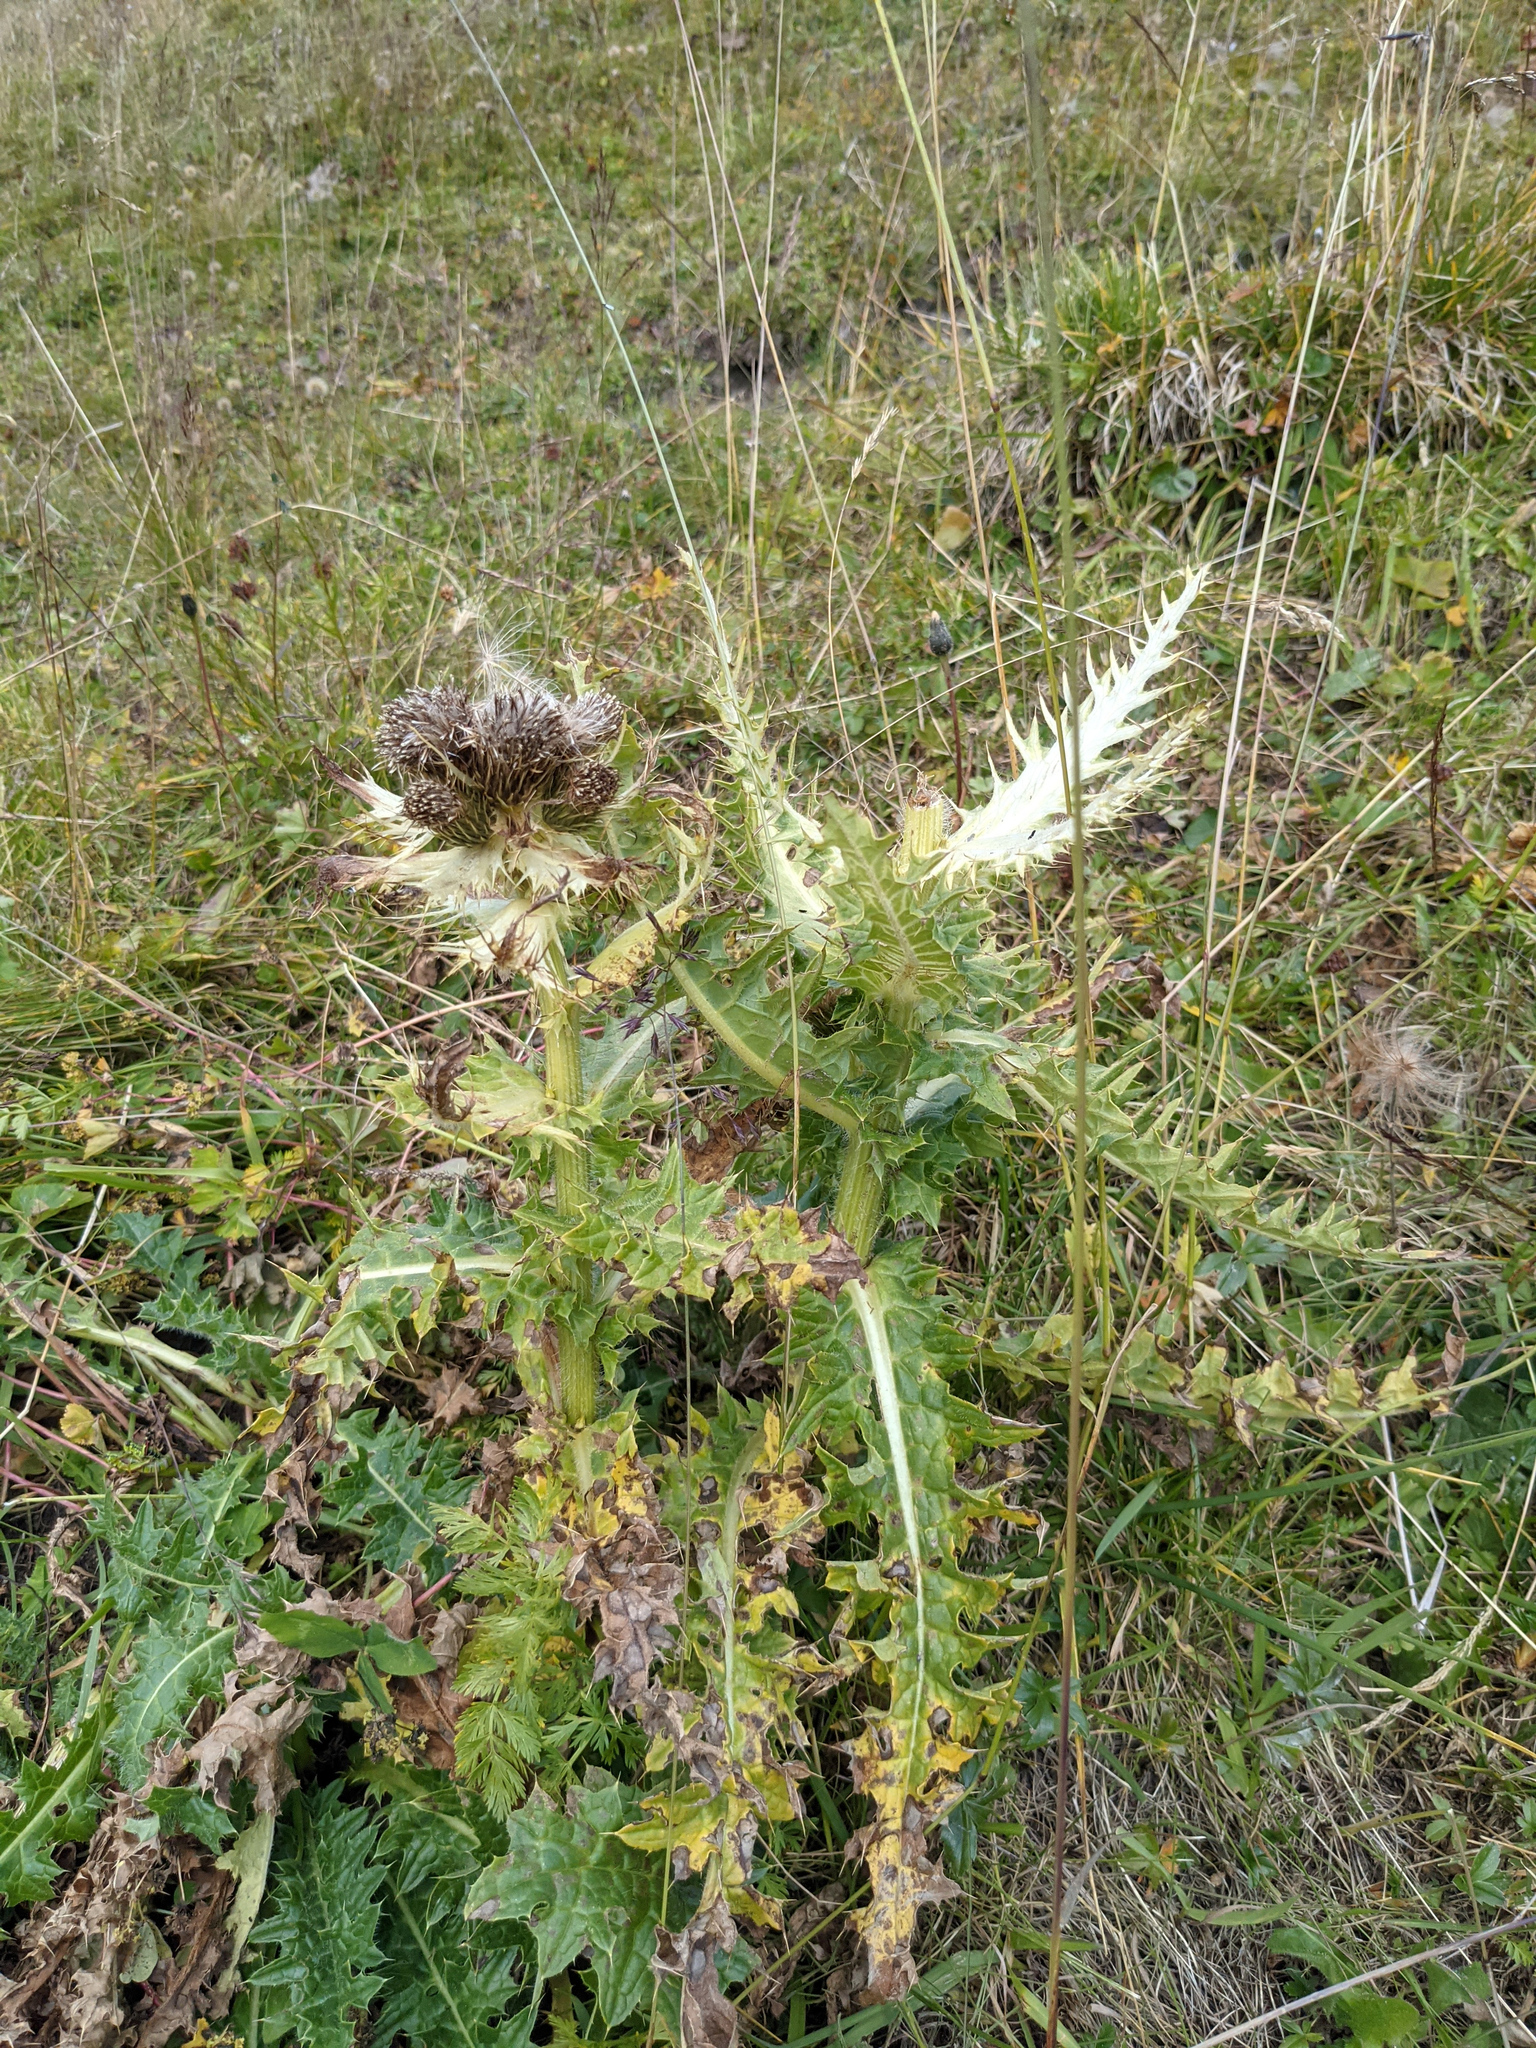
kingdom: Plantae
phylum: Tracheophyta
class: Magnoliopsida
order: Asterales
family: Asteraceae
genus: Cirsium
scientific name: Cirsium spinosissimum
